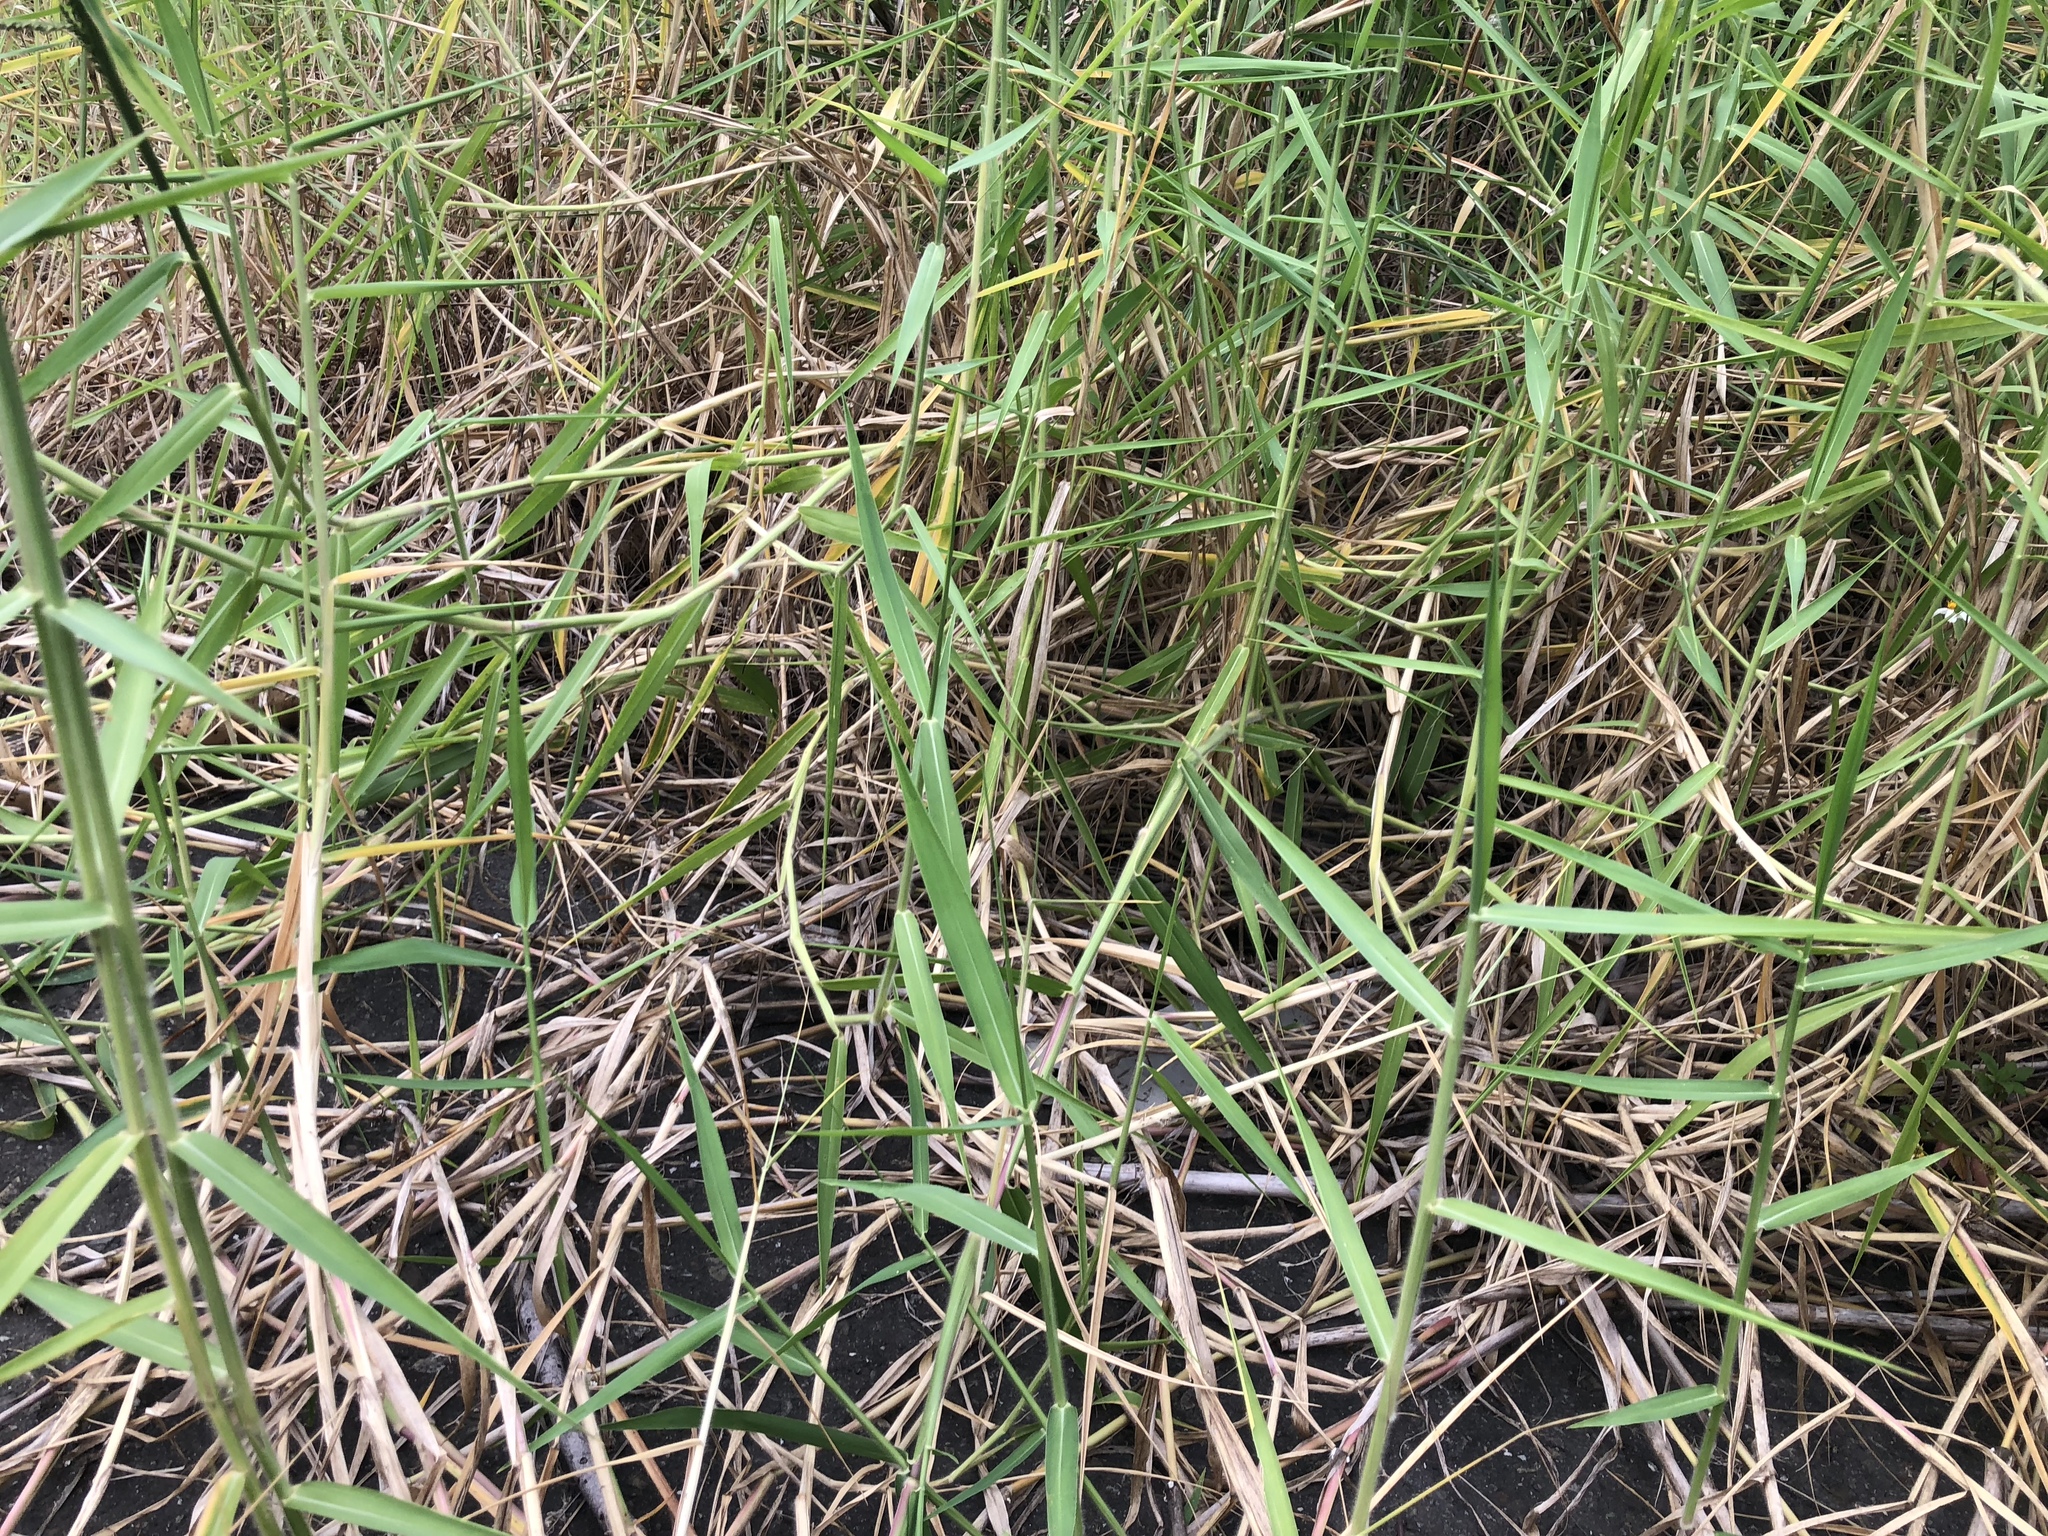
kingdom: Plantae
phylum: Tracheophyta
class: Liliopsida
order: Poales
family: Poaceae
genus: Urochloa
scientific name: Urochloa mutica
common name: Para grass
